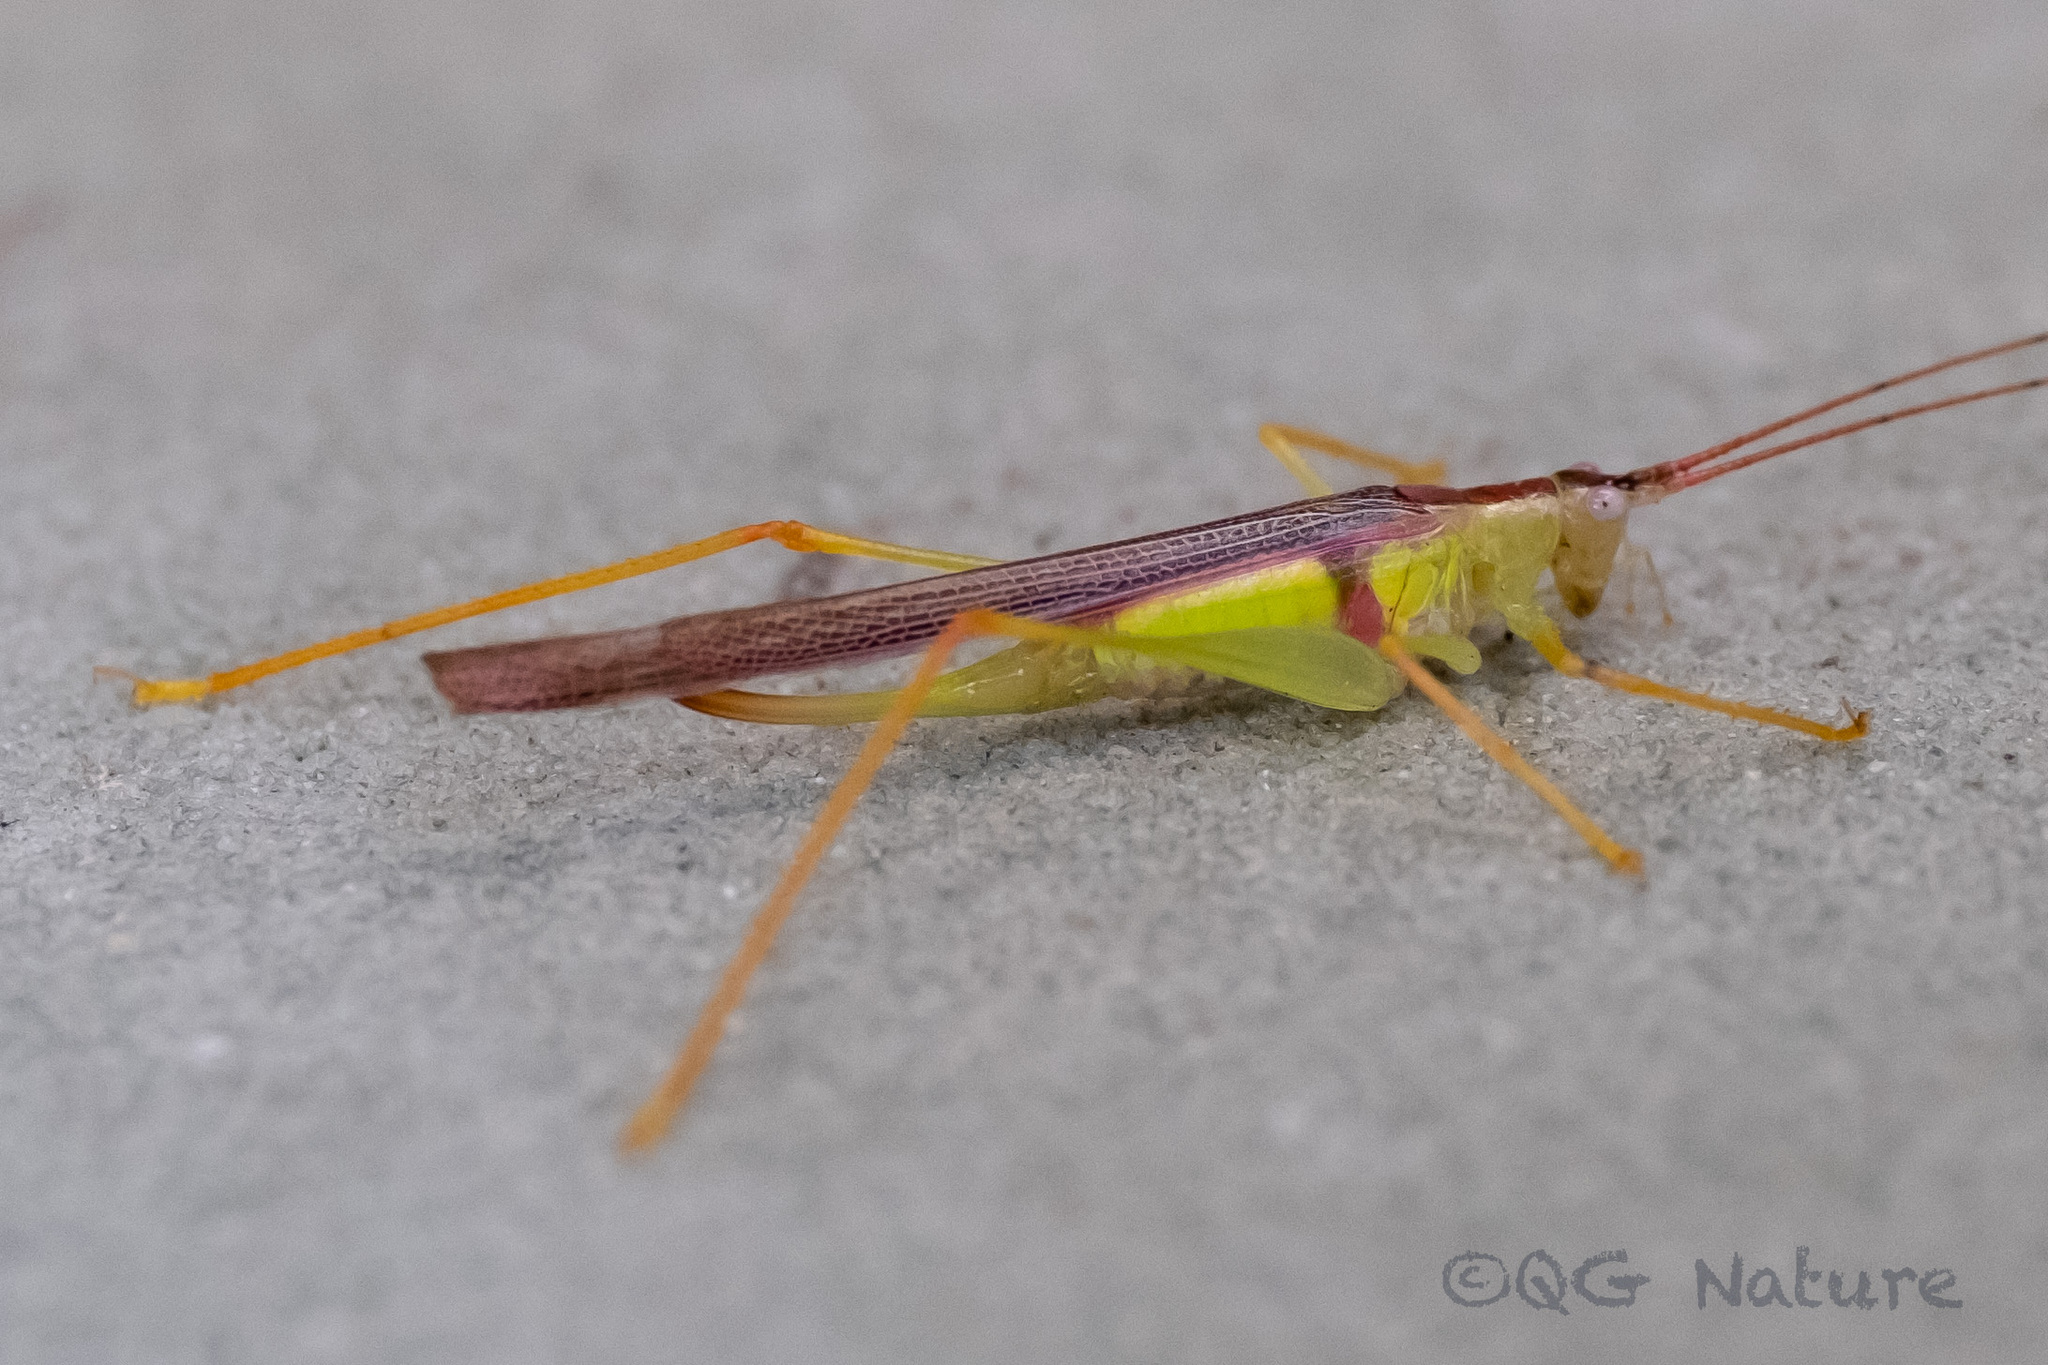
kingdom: Animalia
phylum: Arthropoda
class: Insecta
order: Orthoptera
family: Tettigoniidae
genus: Macroteratura
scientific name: Macroteratura megafurcula
